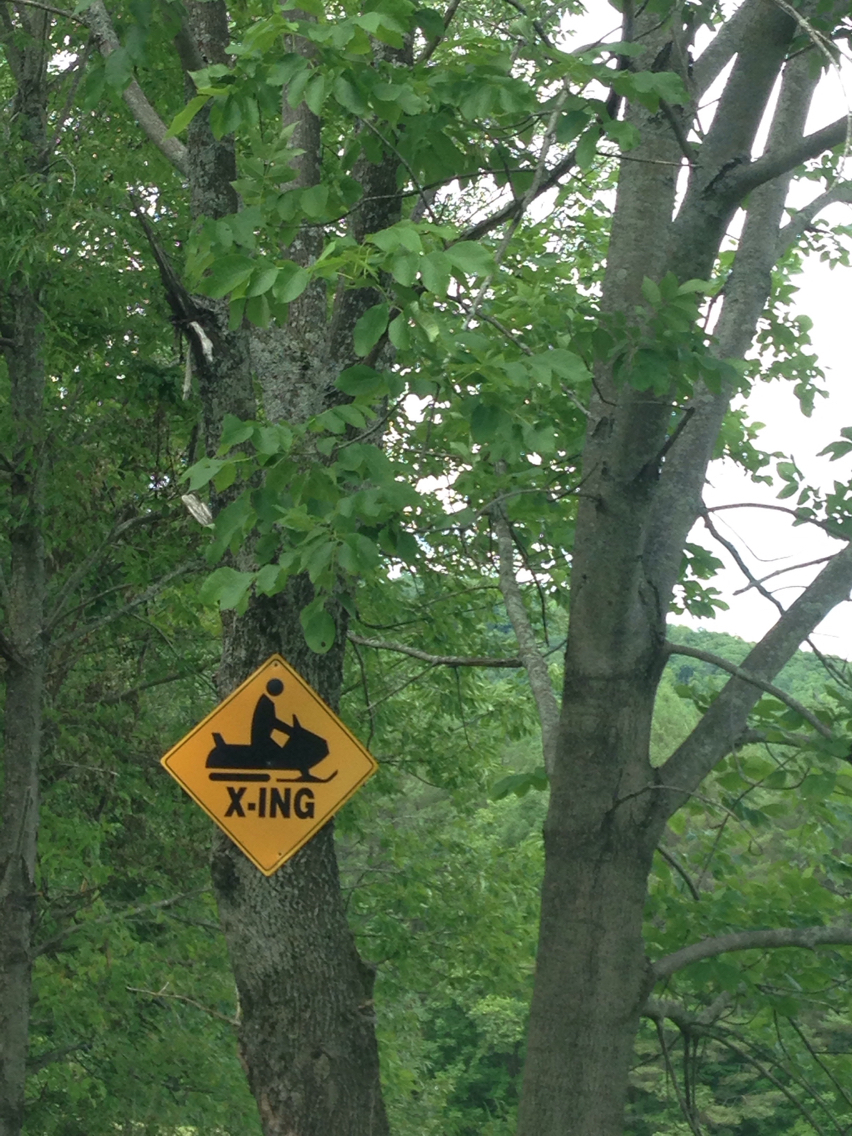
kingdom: Plantae
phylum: Tracheophyta
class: Magnoliopsida
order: Lamiales
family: Oleaceae
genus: Fraxinus
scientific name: Fraxinus americana
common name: White ash
